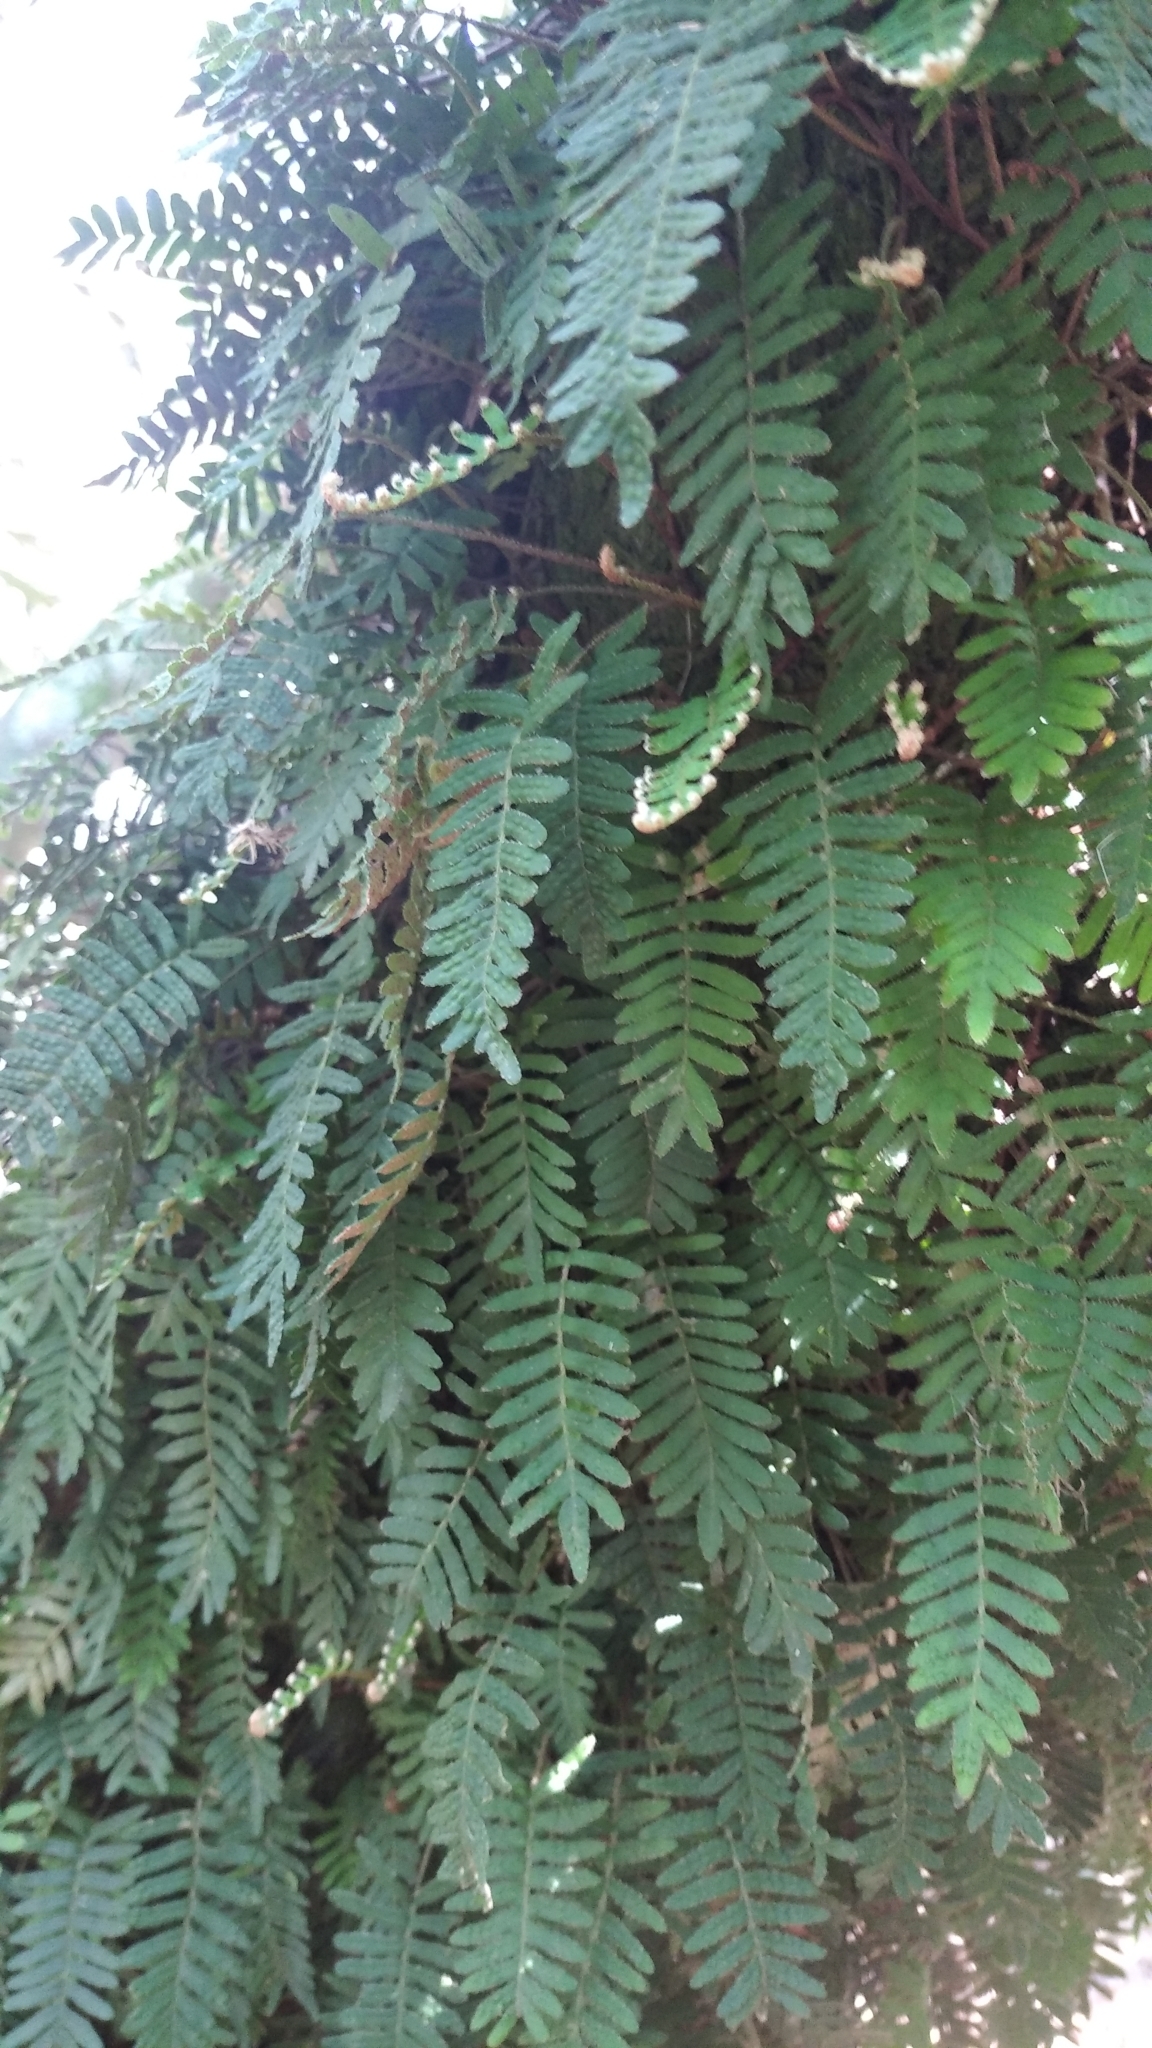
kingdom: Plantae
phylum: Tracheophyta
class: Polypodiopsida
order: Polypodiales
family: Polypodiaceae
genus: Pleopeltis
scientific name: Pleopeltis minima
